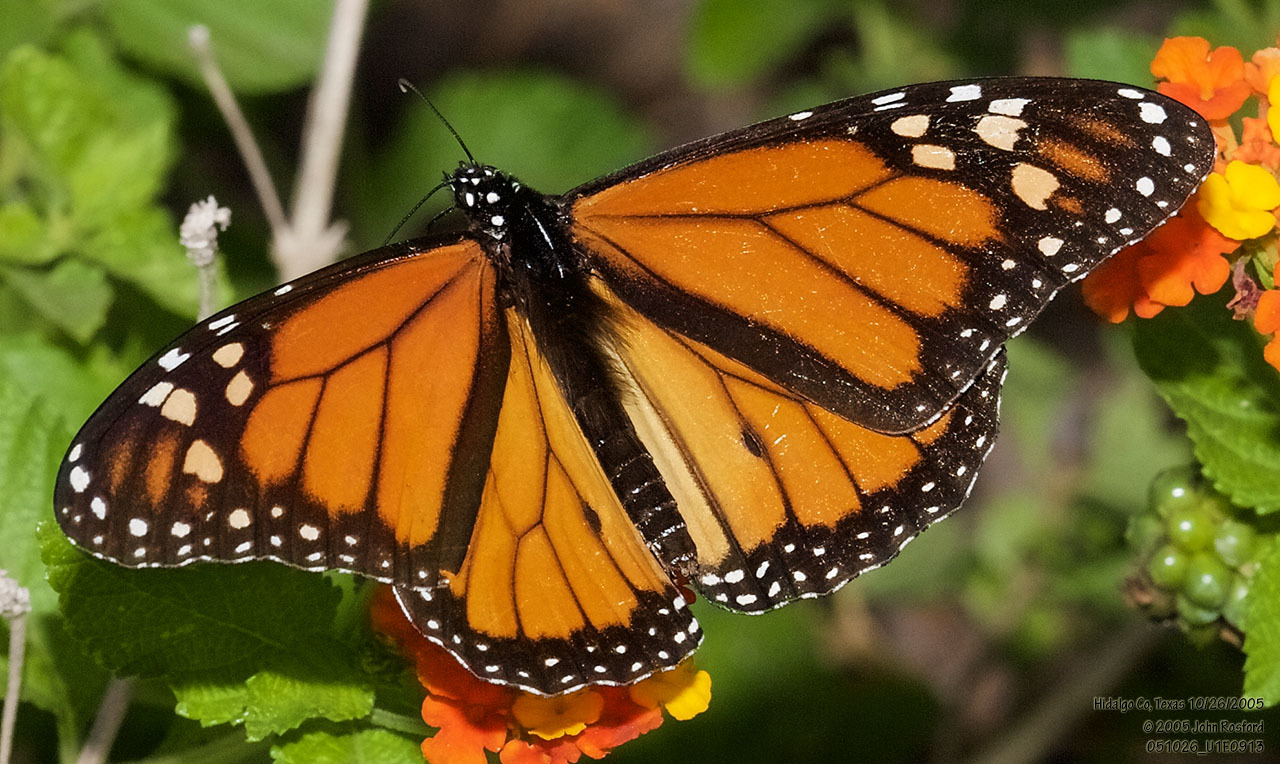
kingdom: Animalia
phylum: Arthropoda
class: Insecta
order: Lepidoptera
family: Nymphalidae
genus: Danaus
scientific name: Danaus plexippus
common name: Monarch
